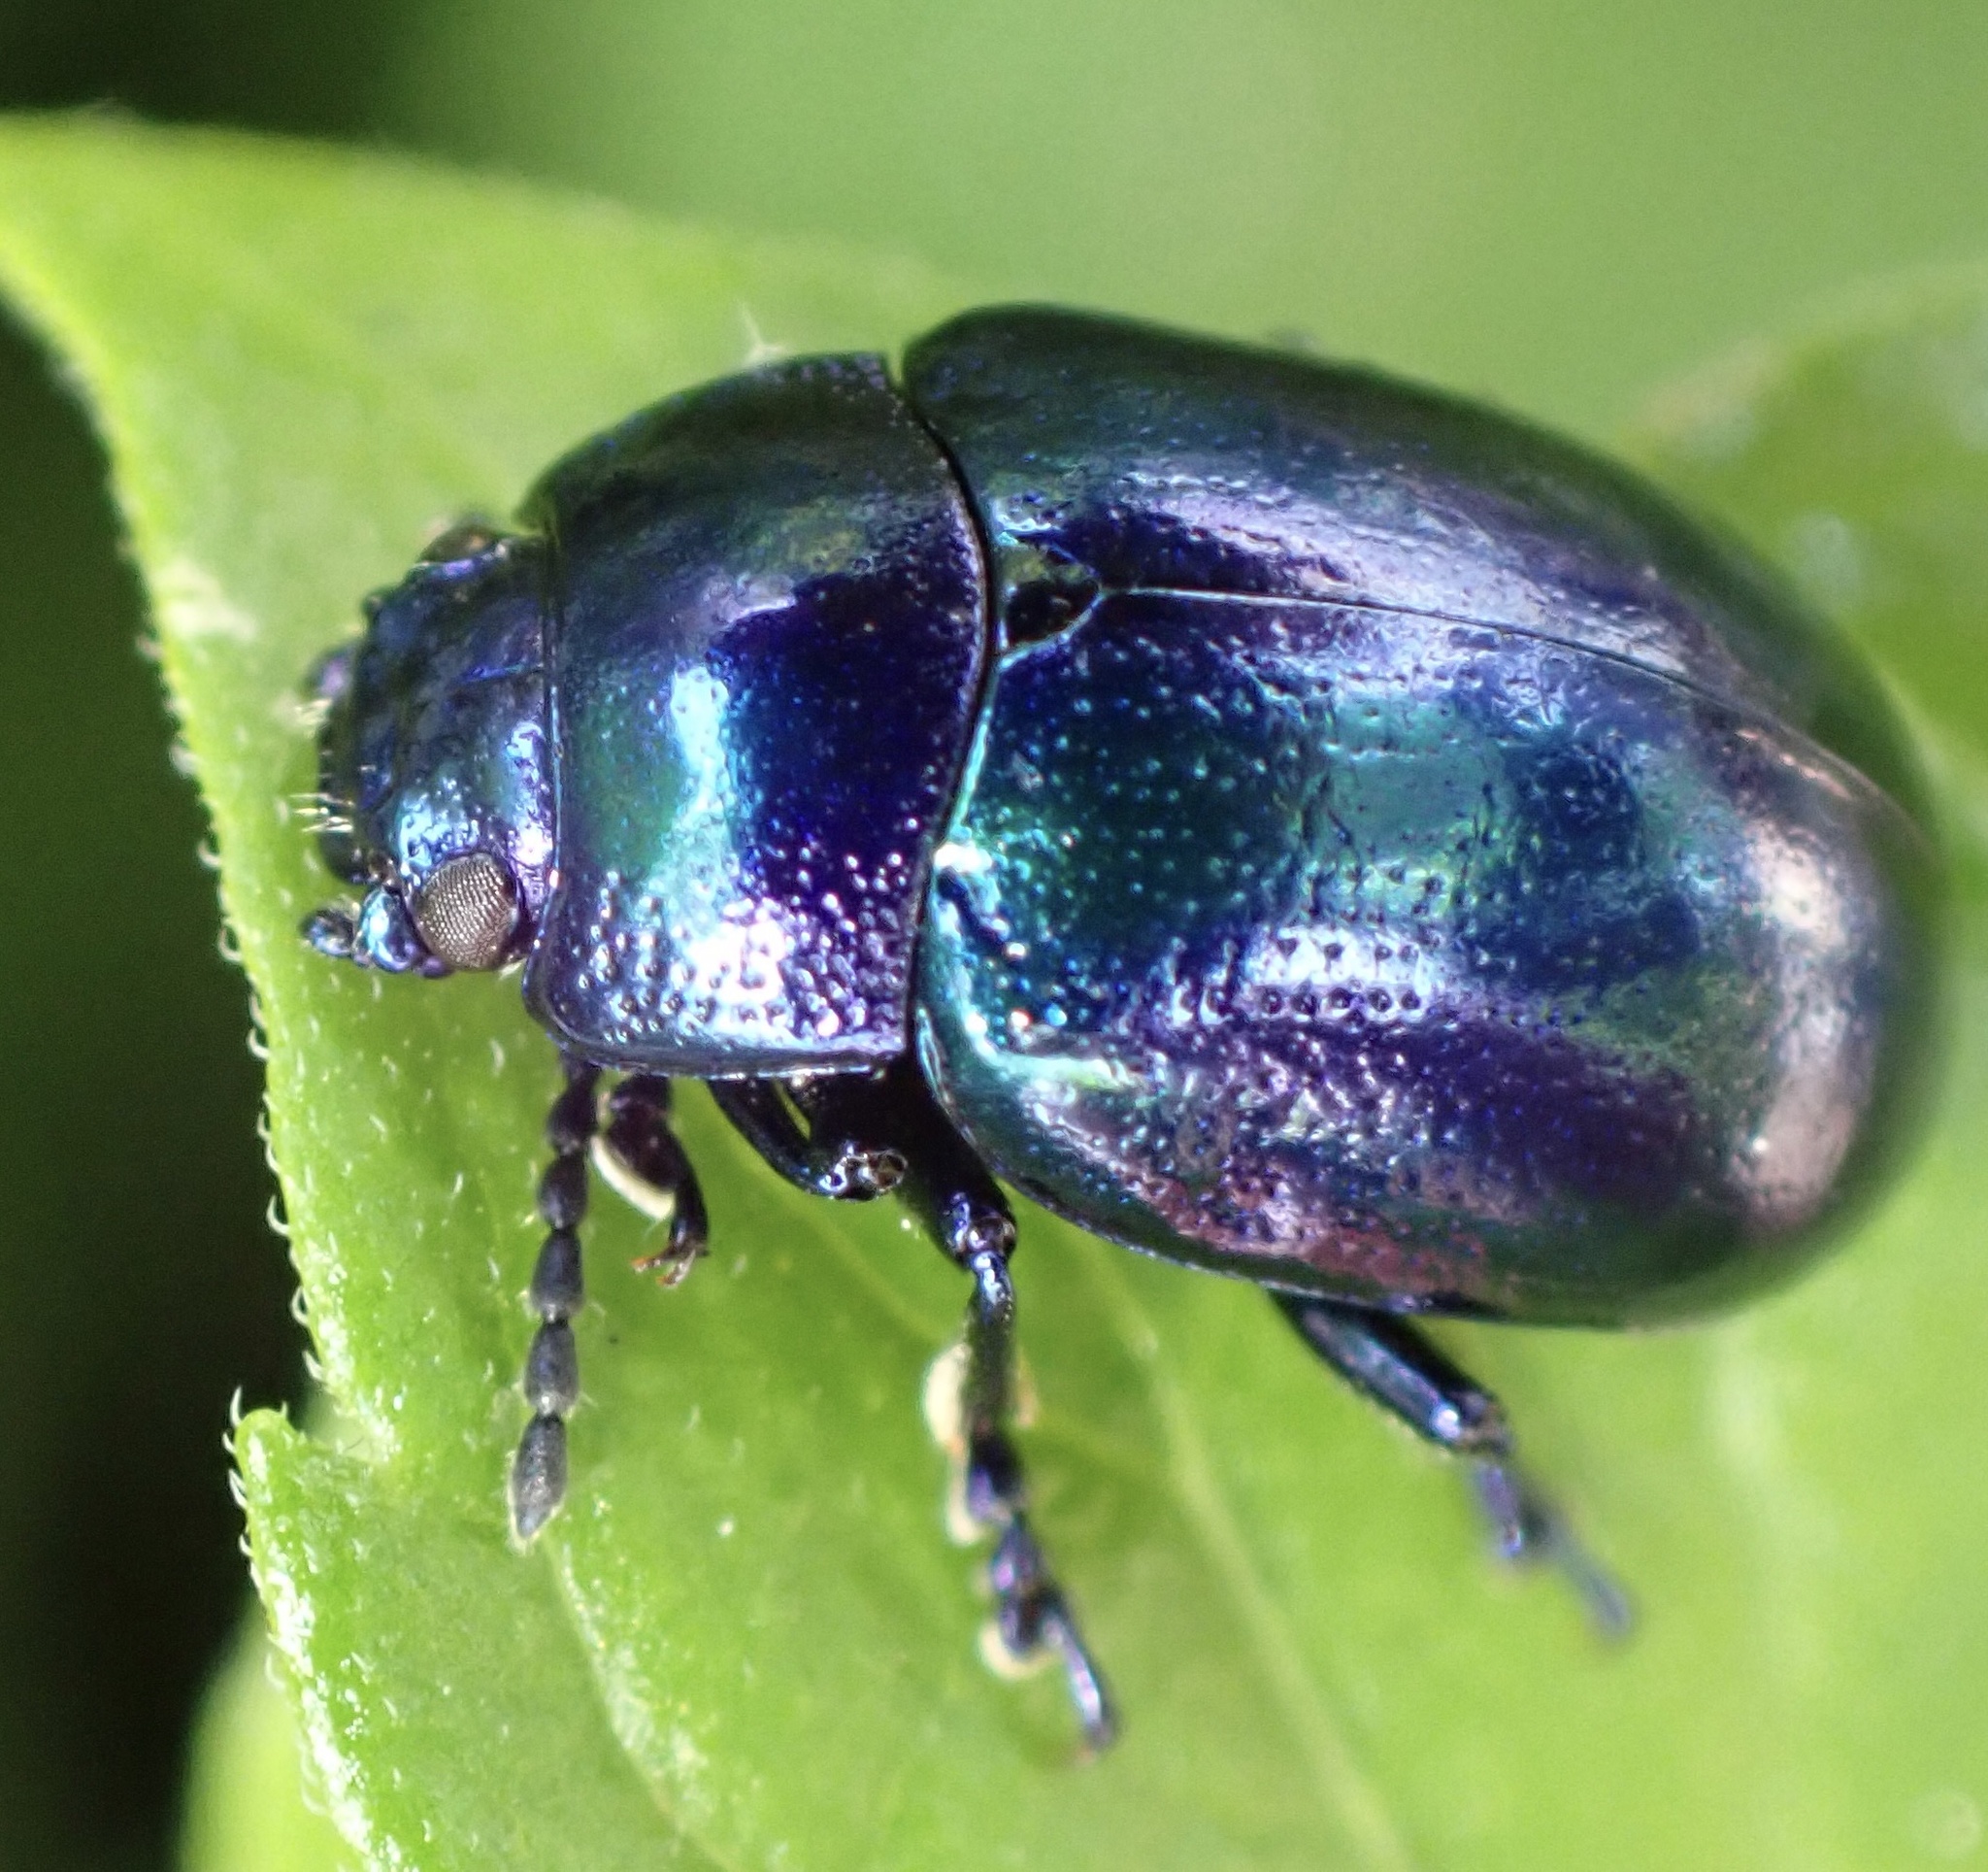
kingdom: Animalia
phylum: Arthropoda
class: Insecta
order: Coleoptera
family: Chrysomelidae
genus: Chrysolina
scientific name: Chrysolina coerulans
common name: Blue mint beetle
